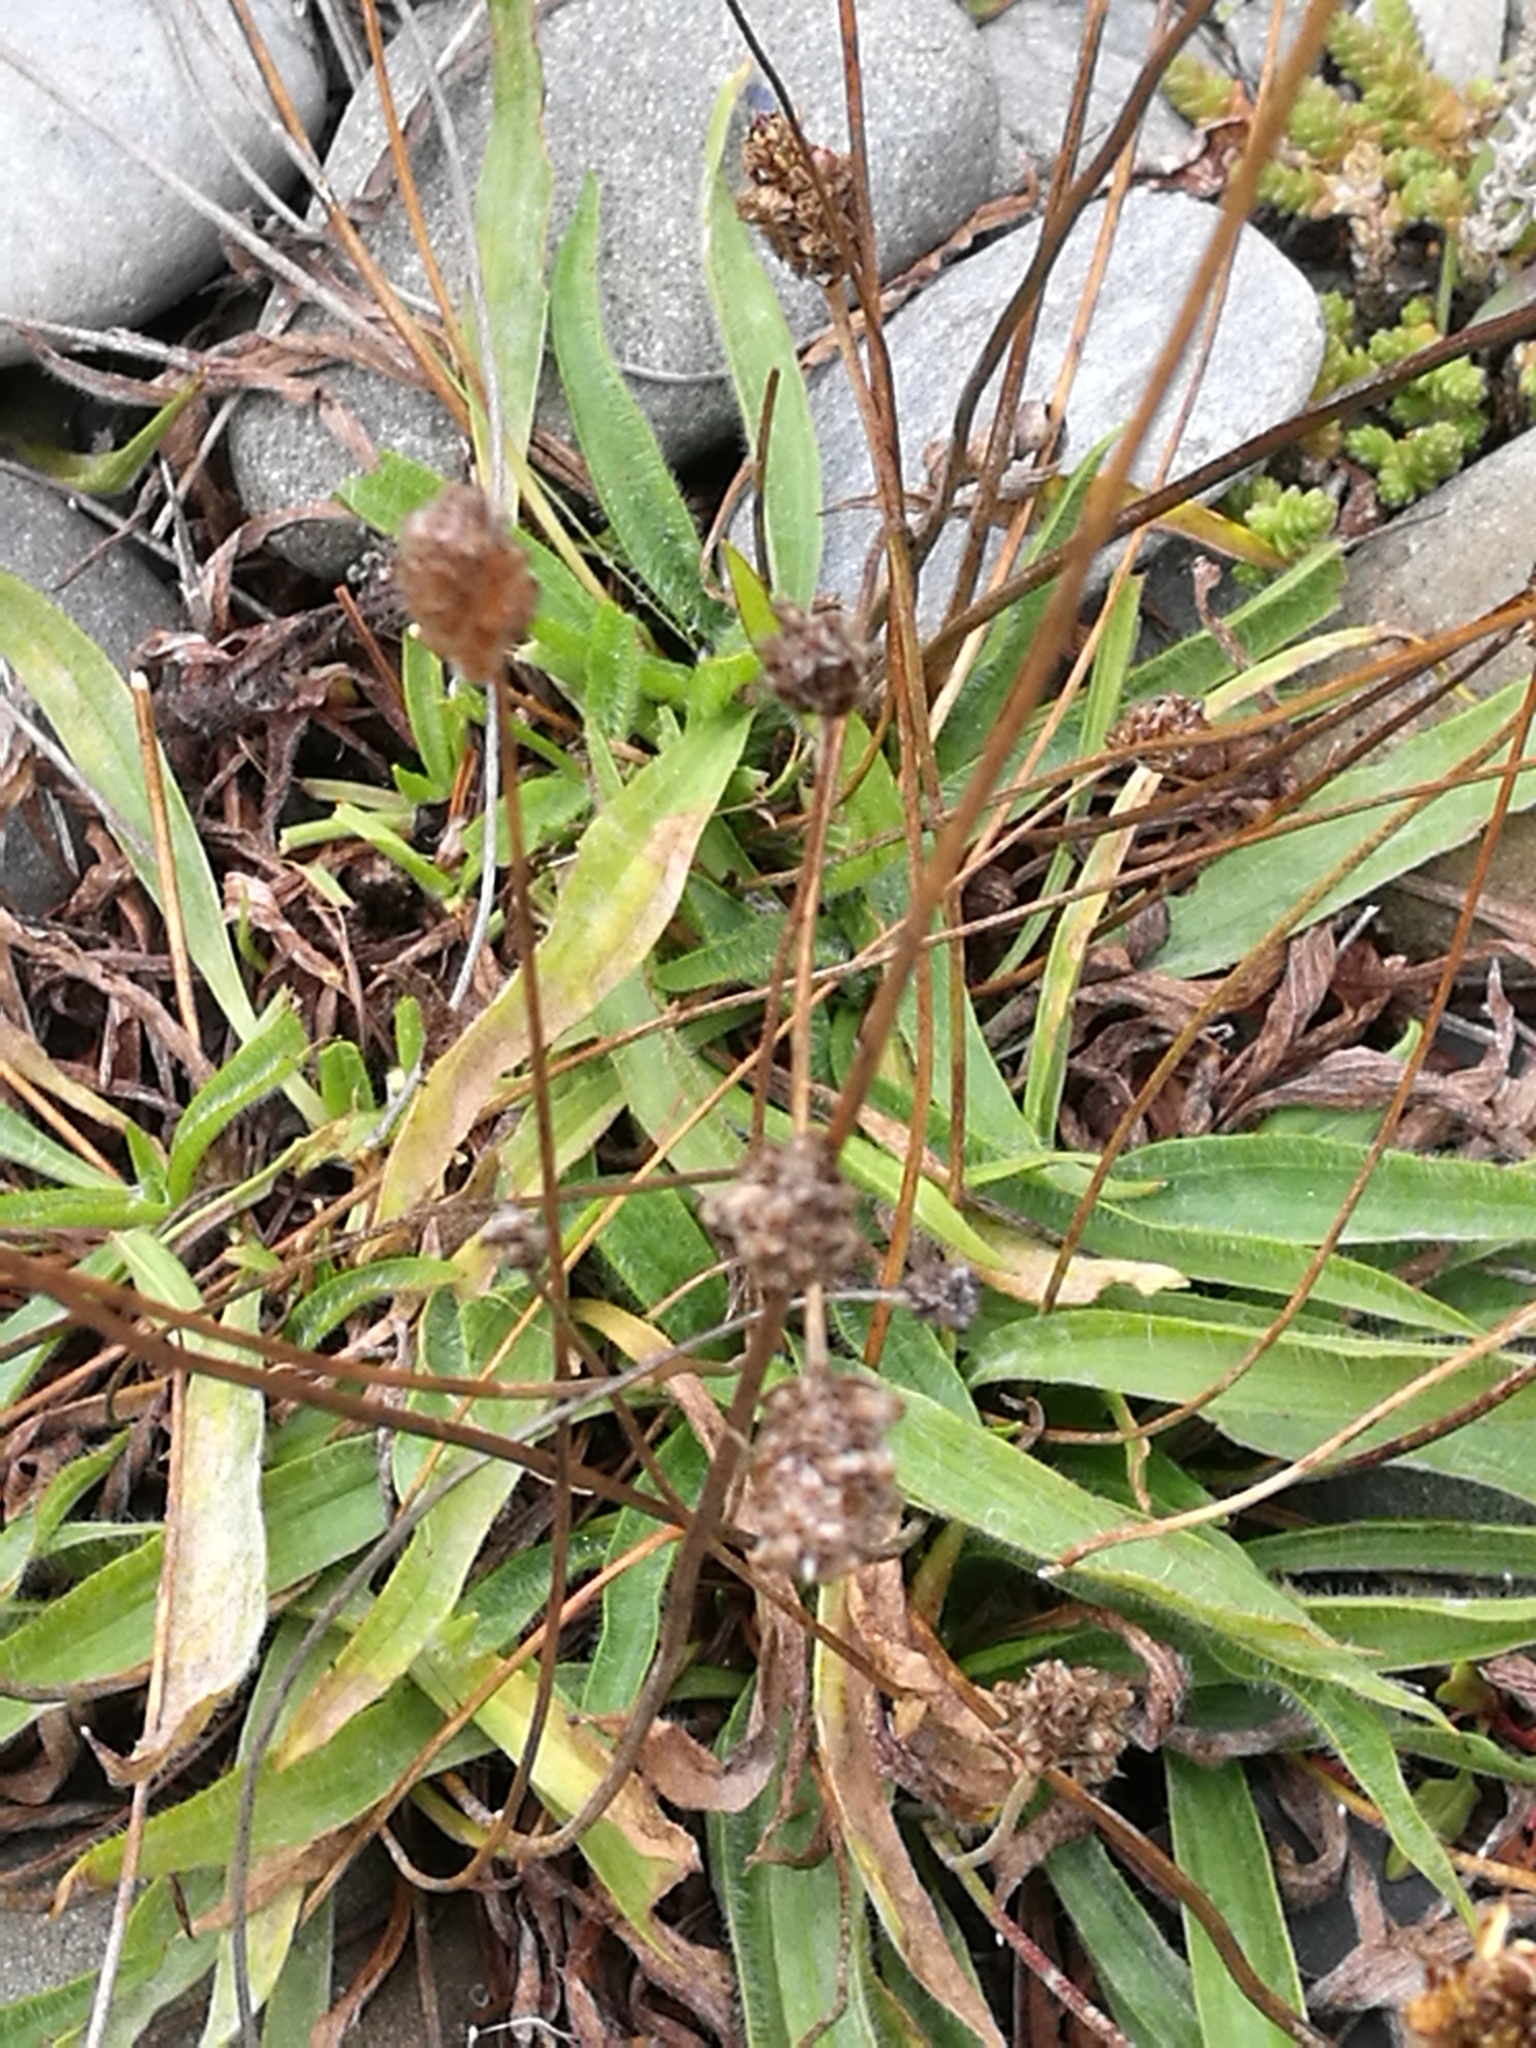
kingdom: Plantae
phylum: Tracheophyta
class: Magnoliopsida
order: Lamiales
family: Plantaginaceae
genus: Plantago
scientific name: Plantago lanceolata
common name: Ribwort plantain
